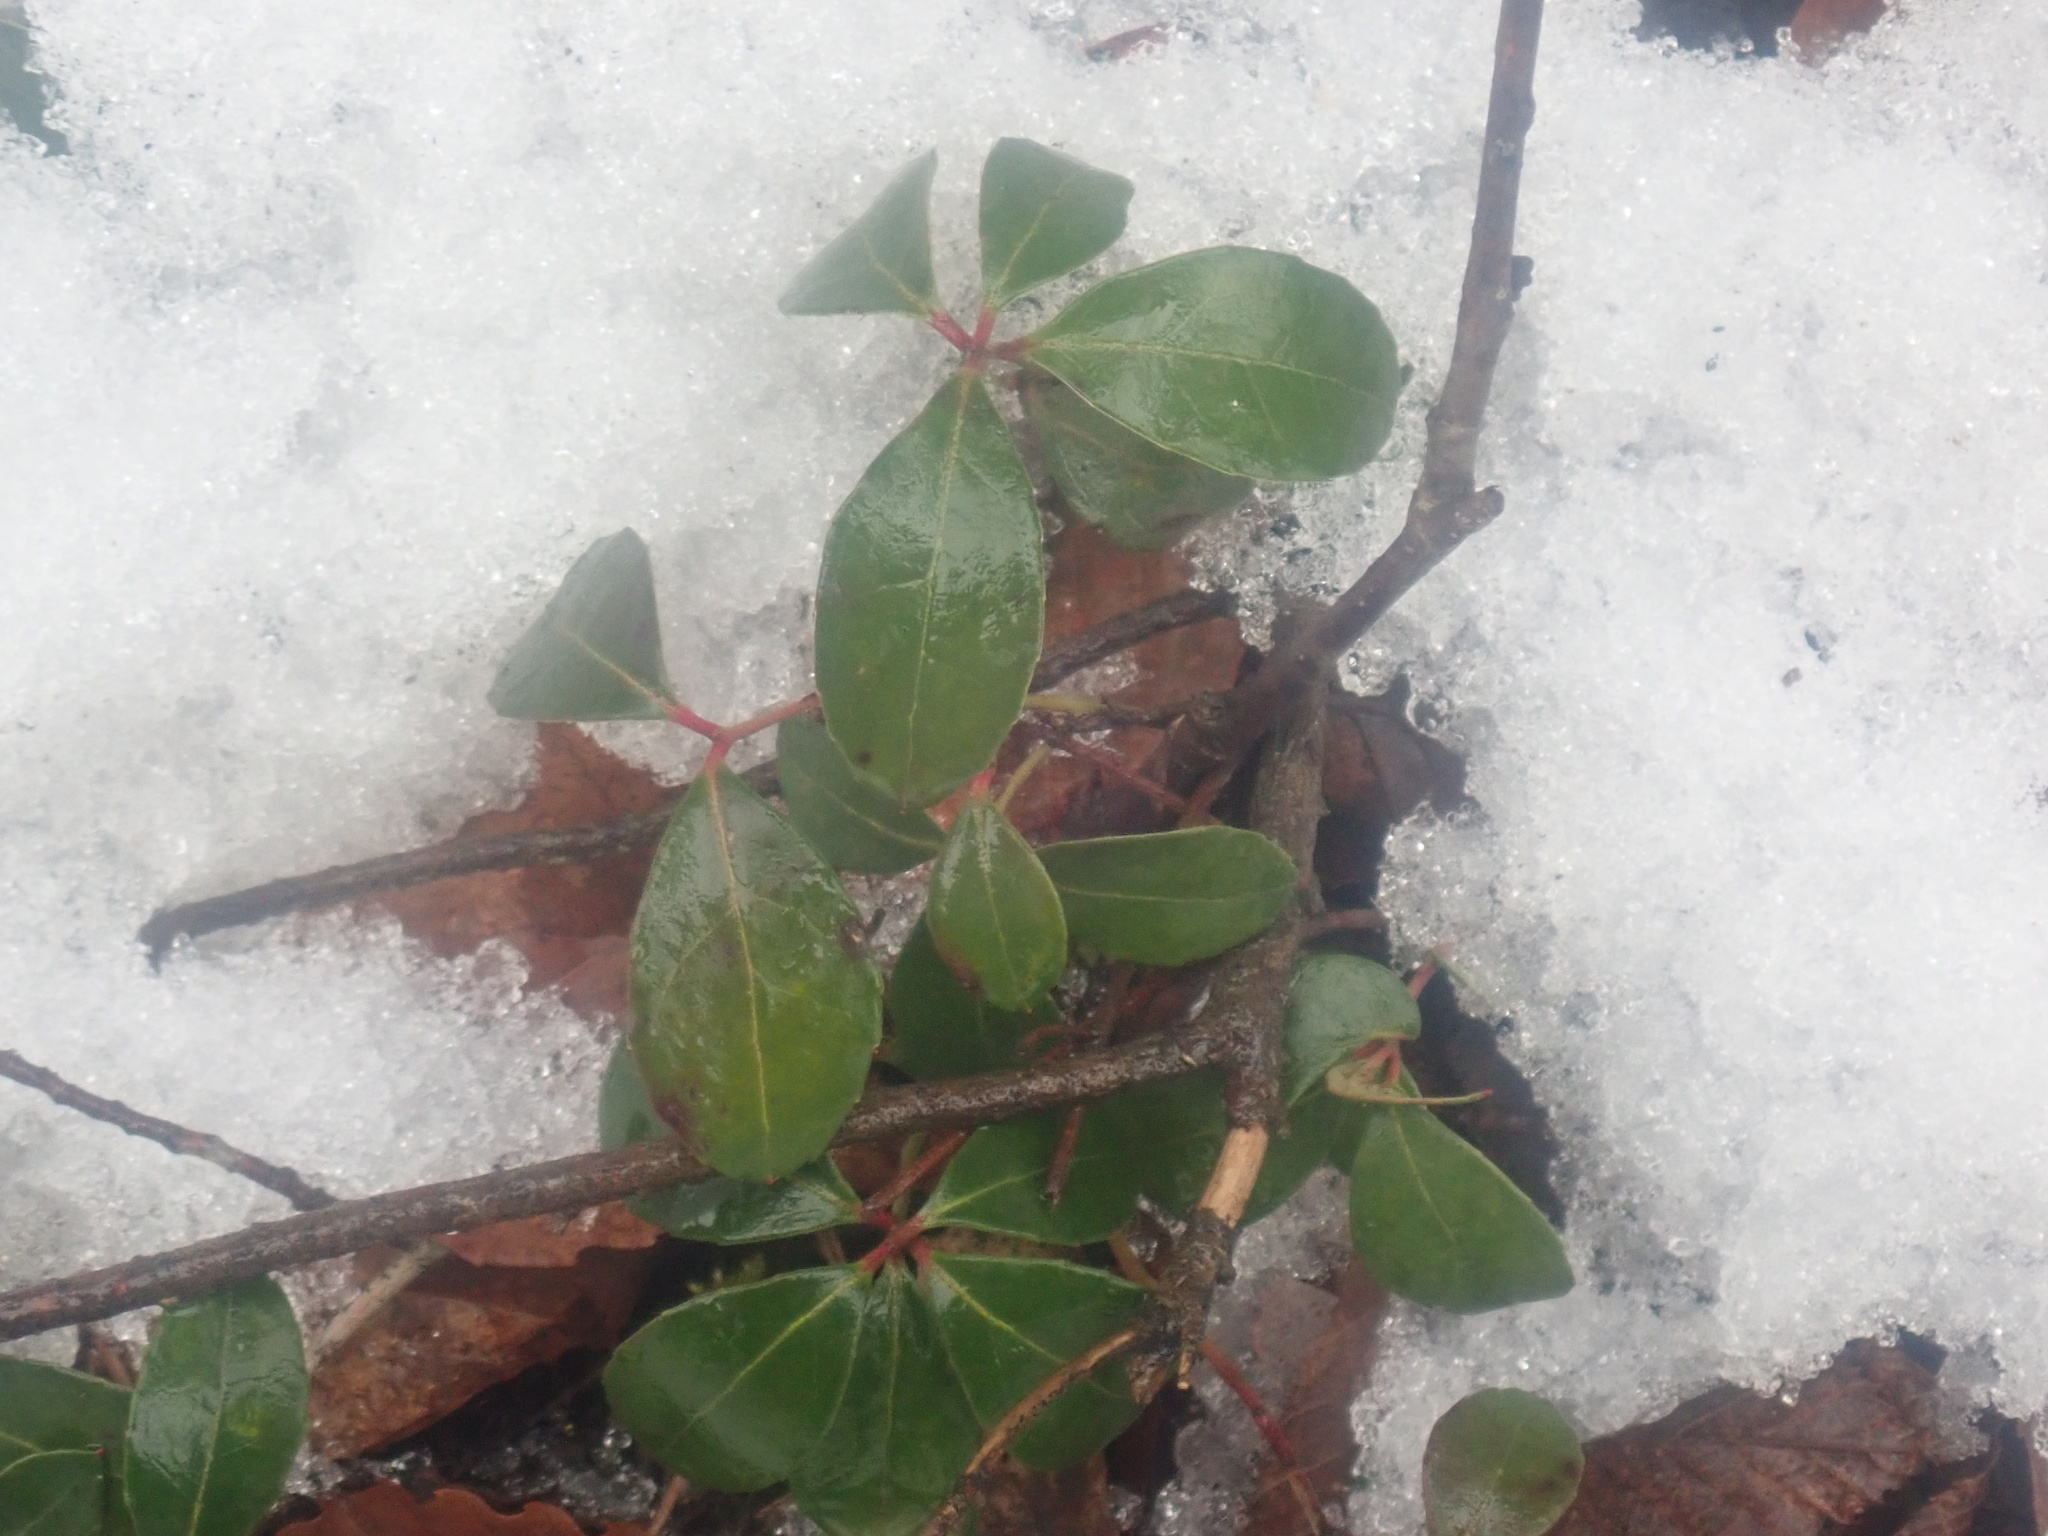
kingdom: Plantae
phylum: Tracheophyta
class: Magnoliopsida
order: Ericales
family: Ericaceae
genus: Gaultheria
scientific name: Gaultheria procumbens
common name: Checkerberry
